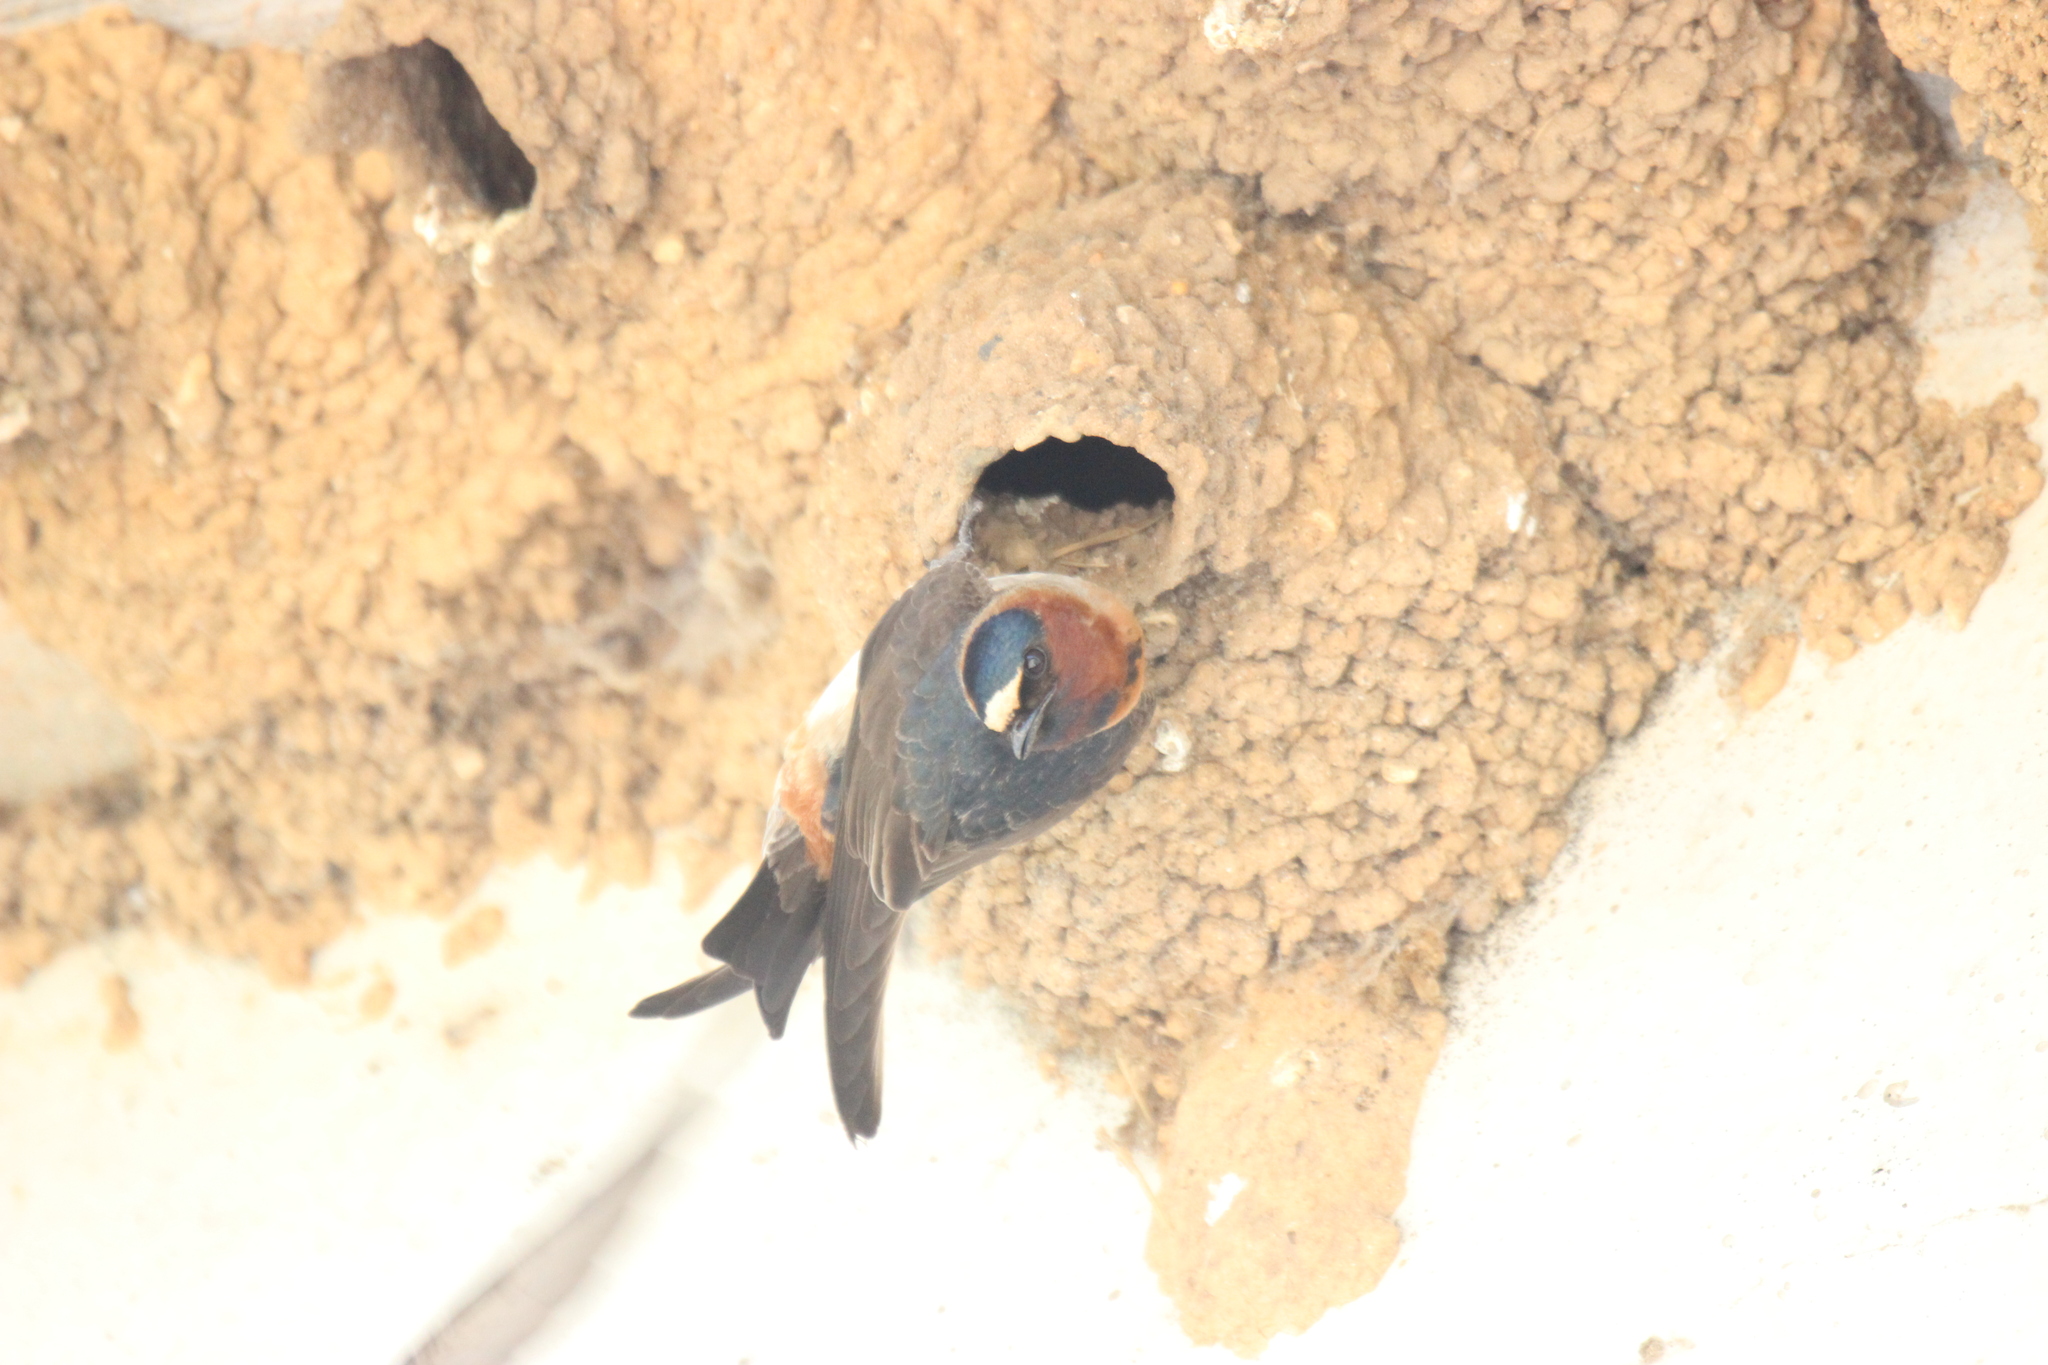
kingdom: Animalia
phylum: Chordata
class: Aves
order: Passeriformes
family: Hirundinidae
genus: Petrochelidon
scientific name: Petrochelidon pyrrhonota
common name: American cliff swallow
